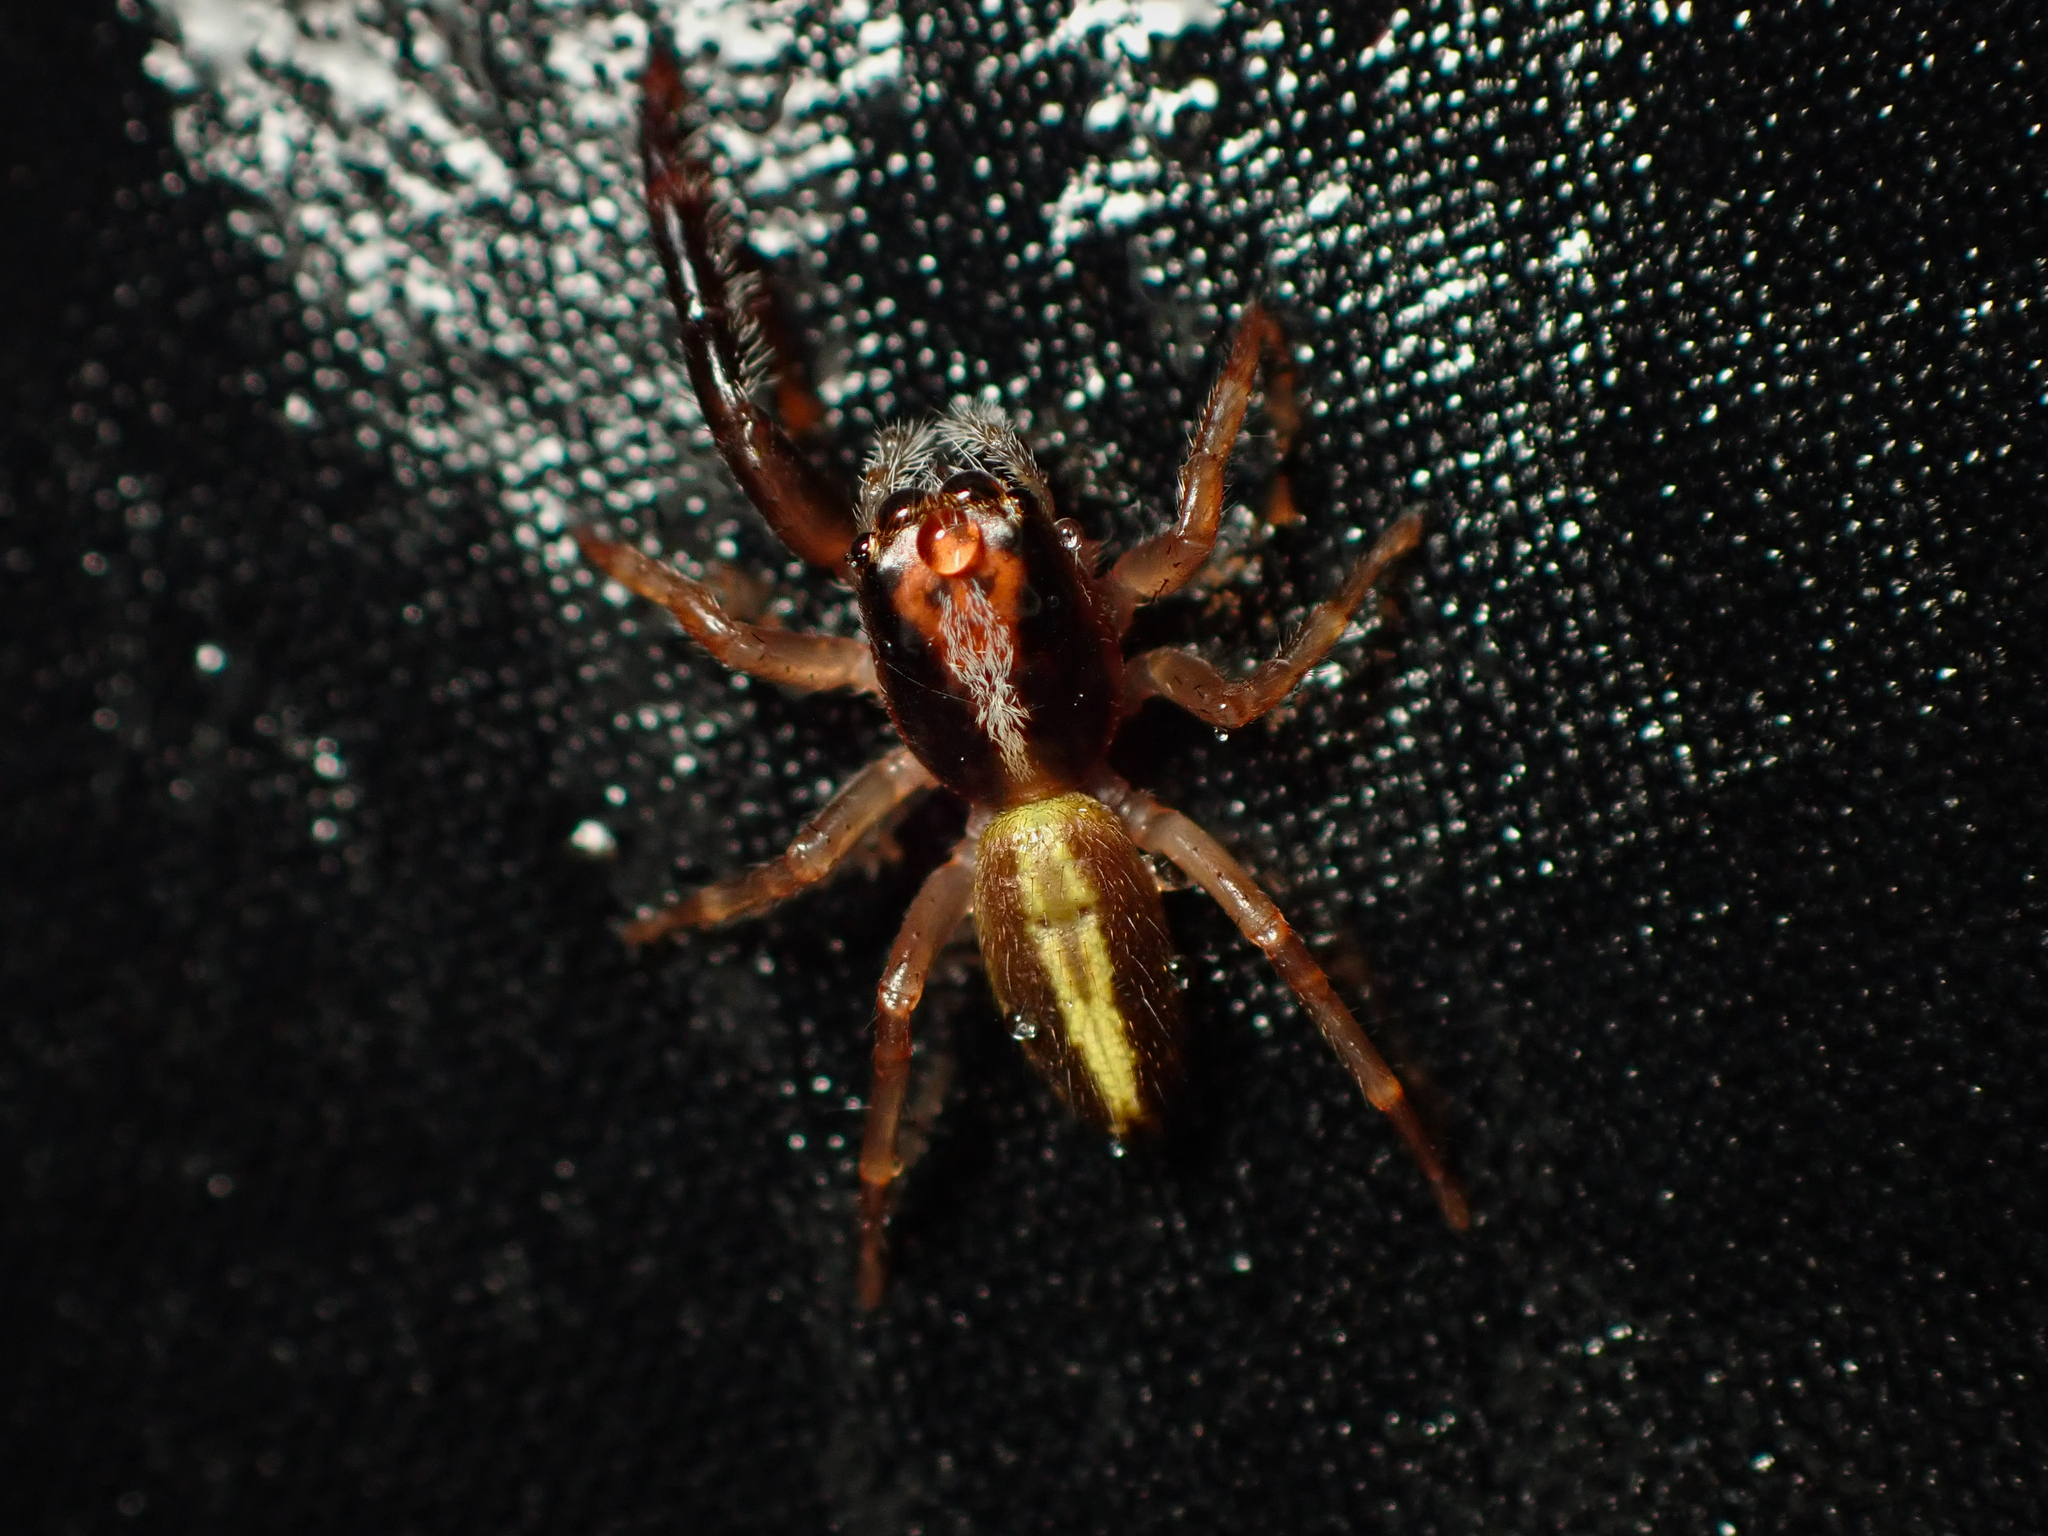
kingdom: Animalia
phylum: Arthropoda
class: Arachnida
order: Araneae
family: Salticidae
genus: Trite
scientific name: Trite planiceps
